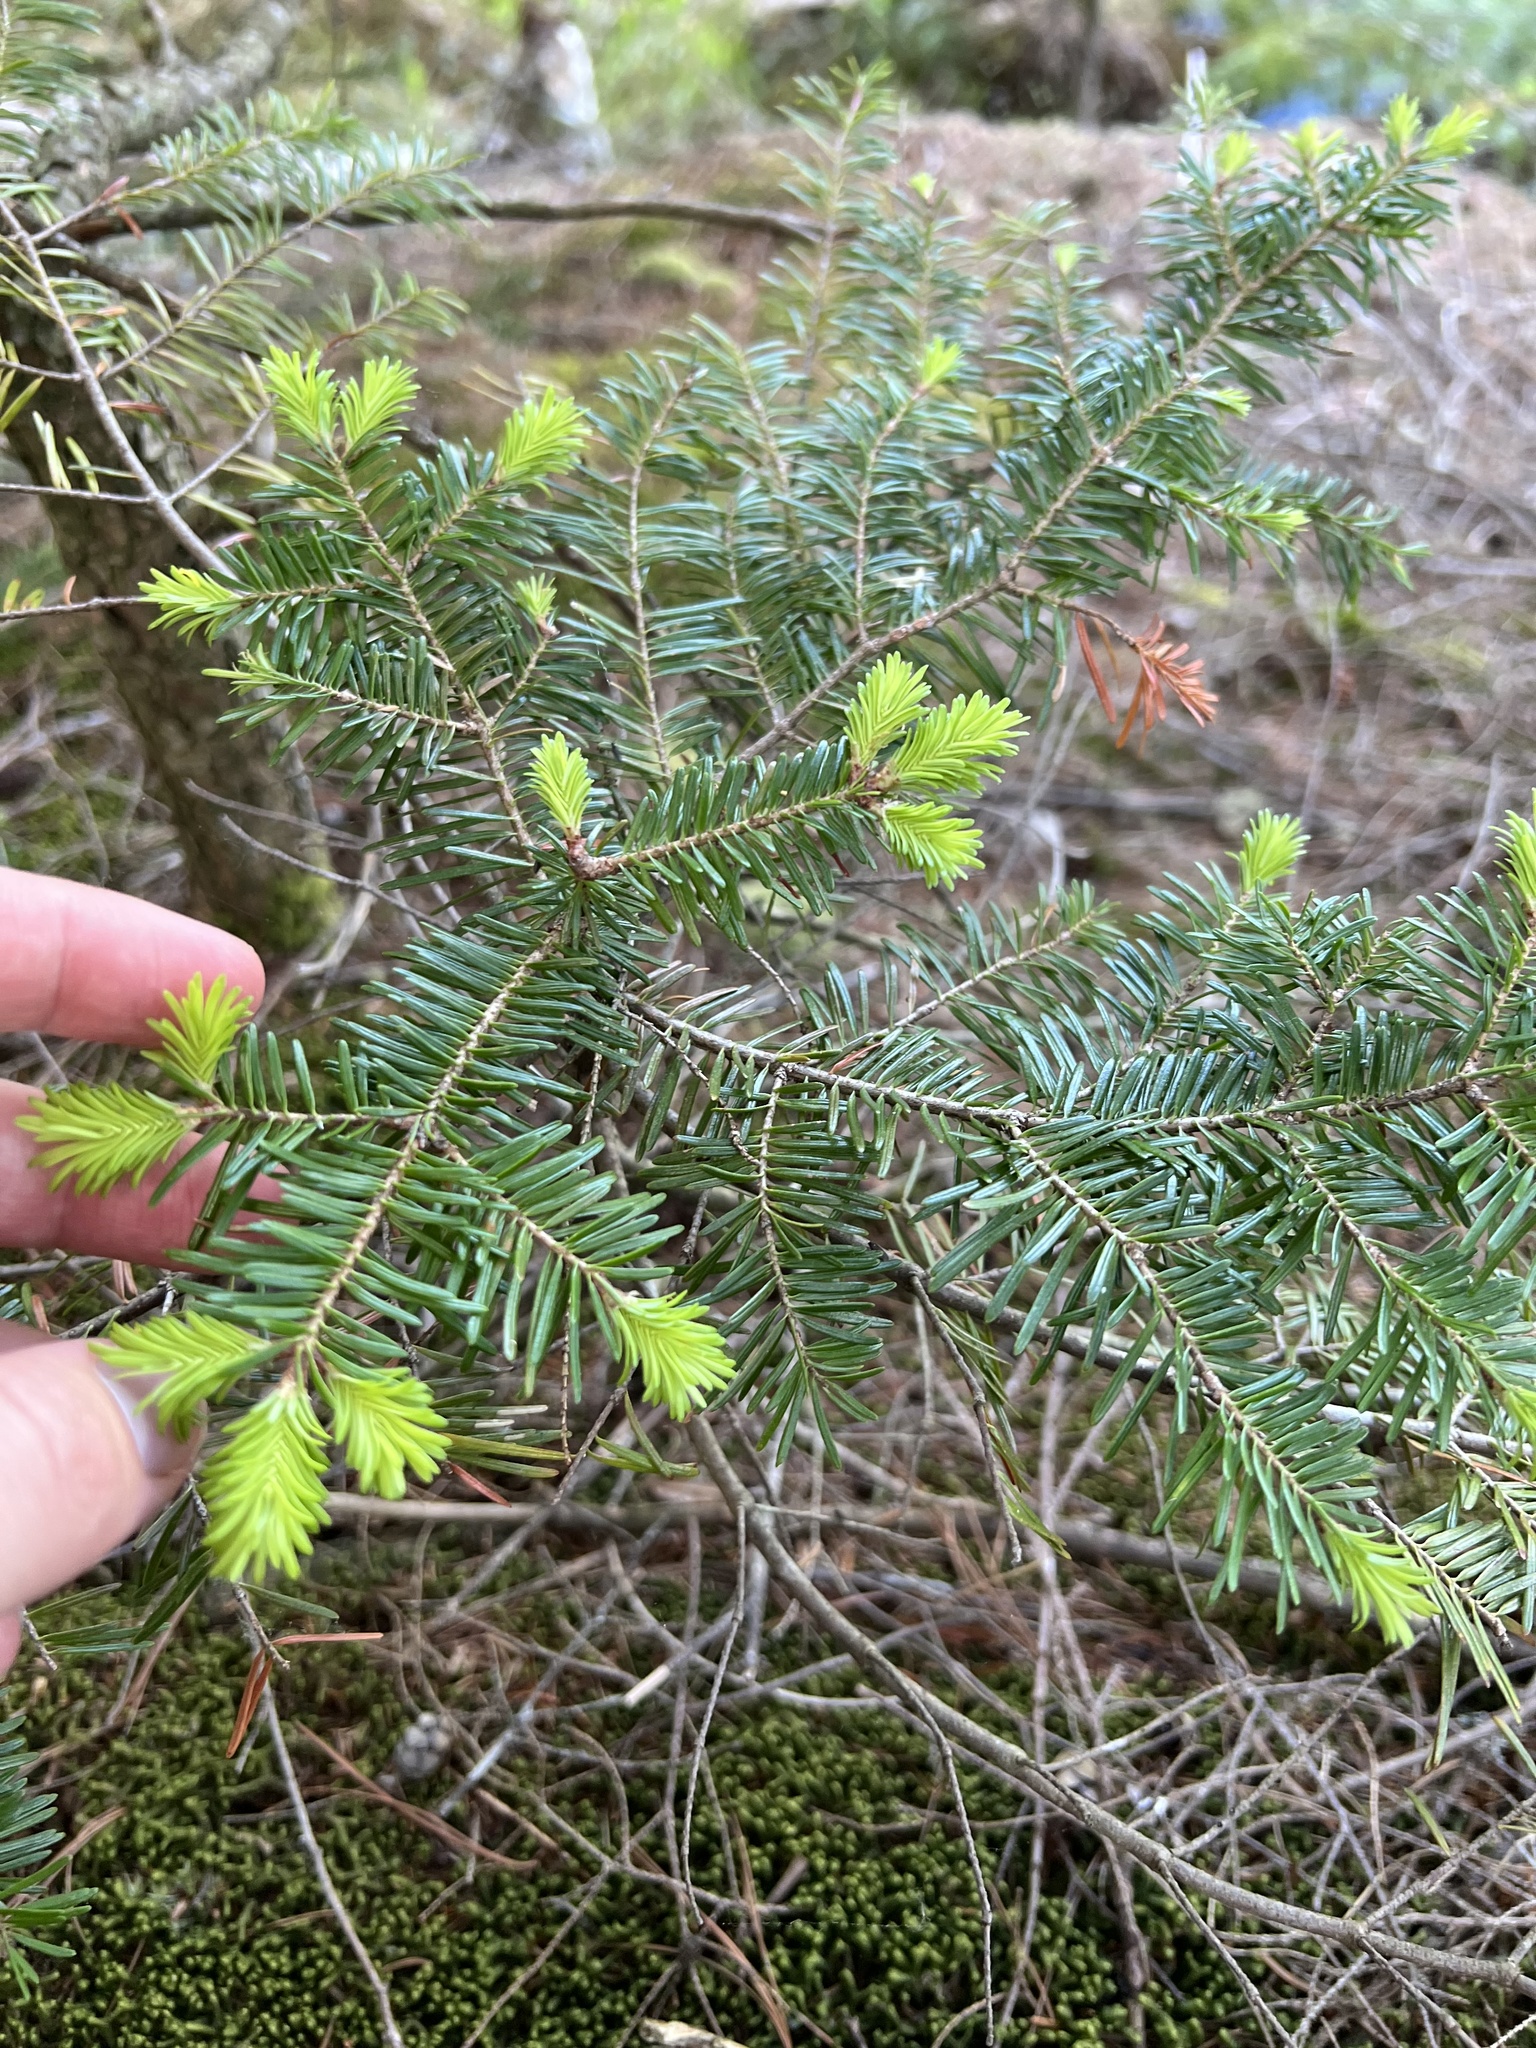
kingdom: Plantae
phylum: Tracheophyta
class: Pinopsida
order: Pinales
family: Pinaceae
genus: Abies
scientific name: Abies balsamea
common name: Balsam fir
